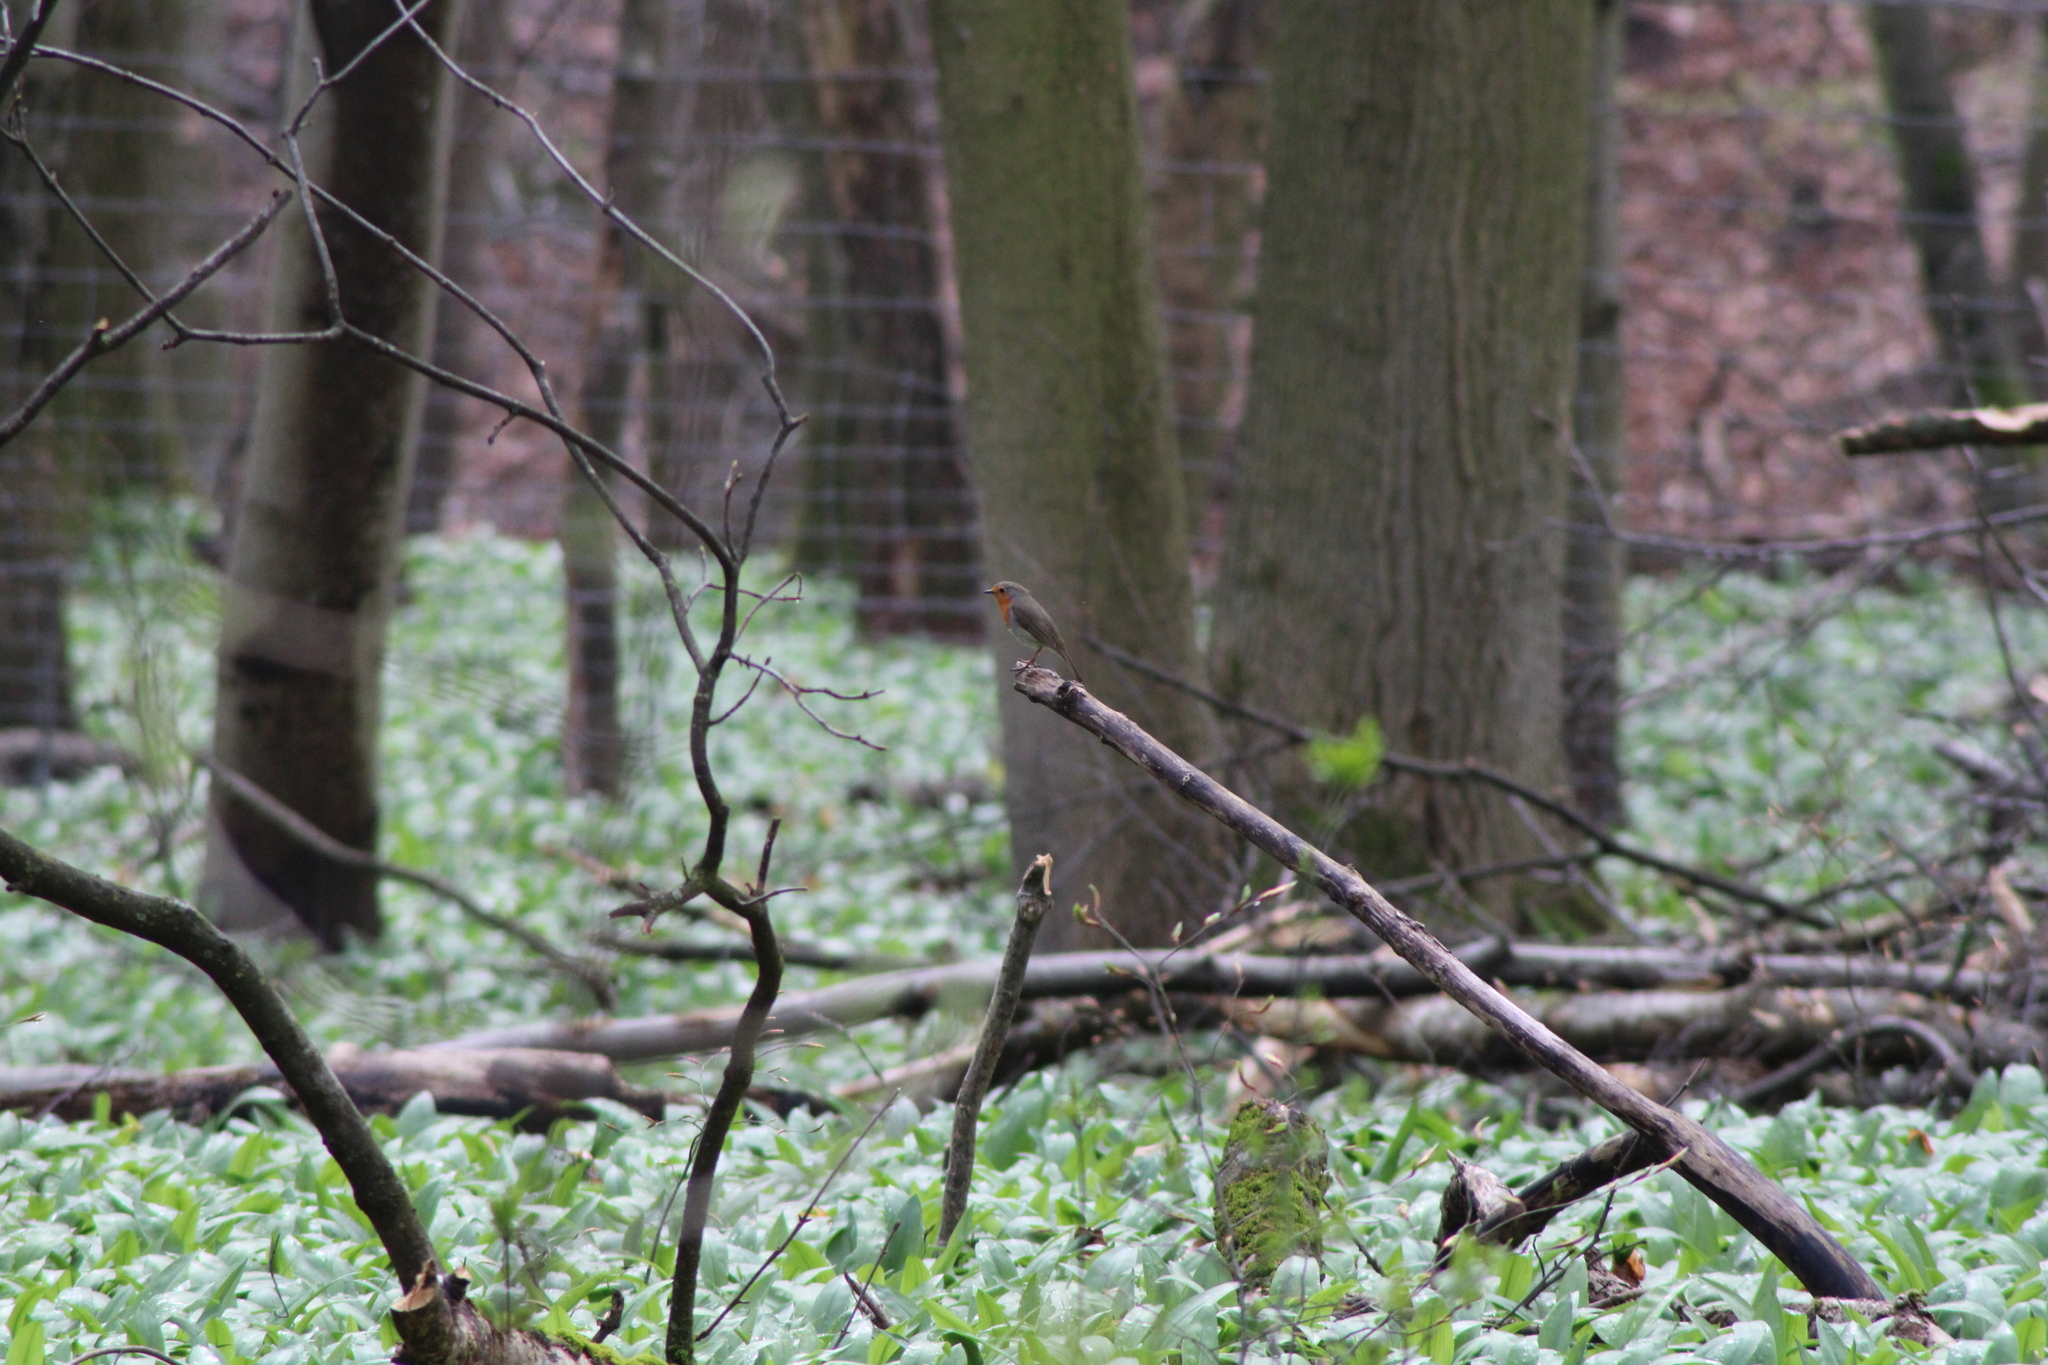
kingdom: Animalia
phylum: Chordata
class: Aves
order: Passeriformes
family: Muscicapidae
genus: Erithacus
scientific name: Erithacus rubecula
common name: European robin
